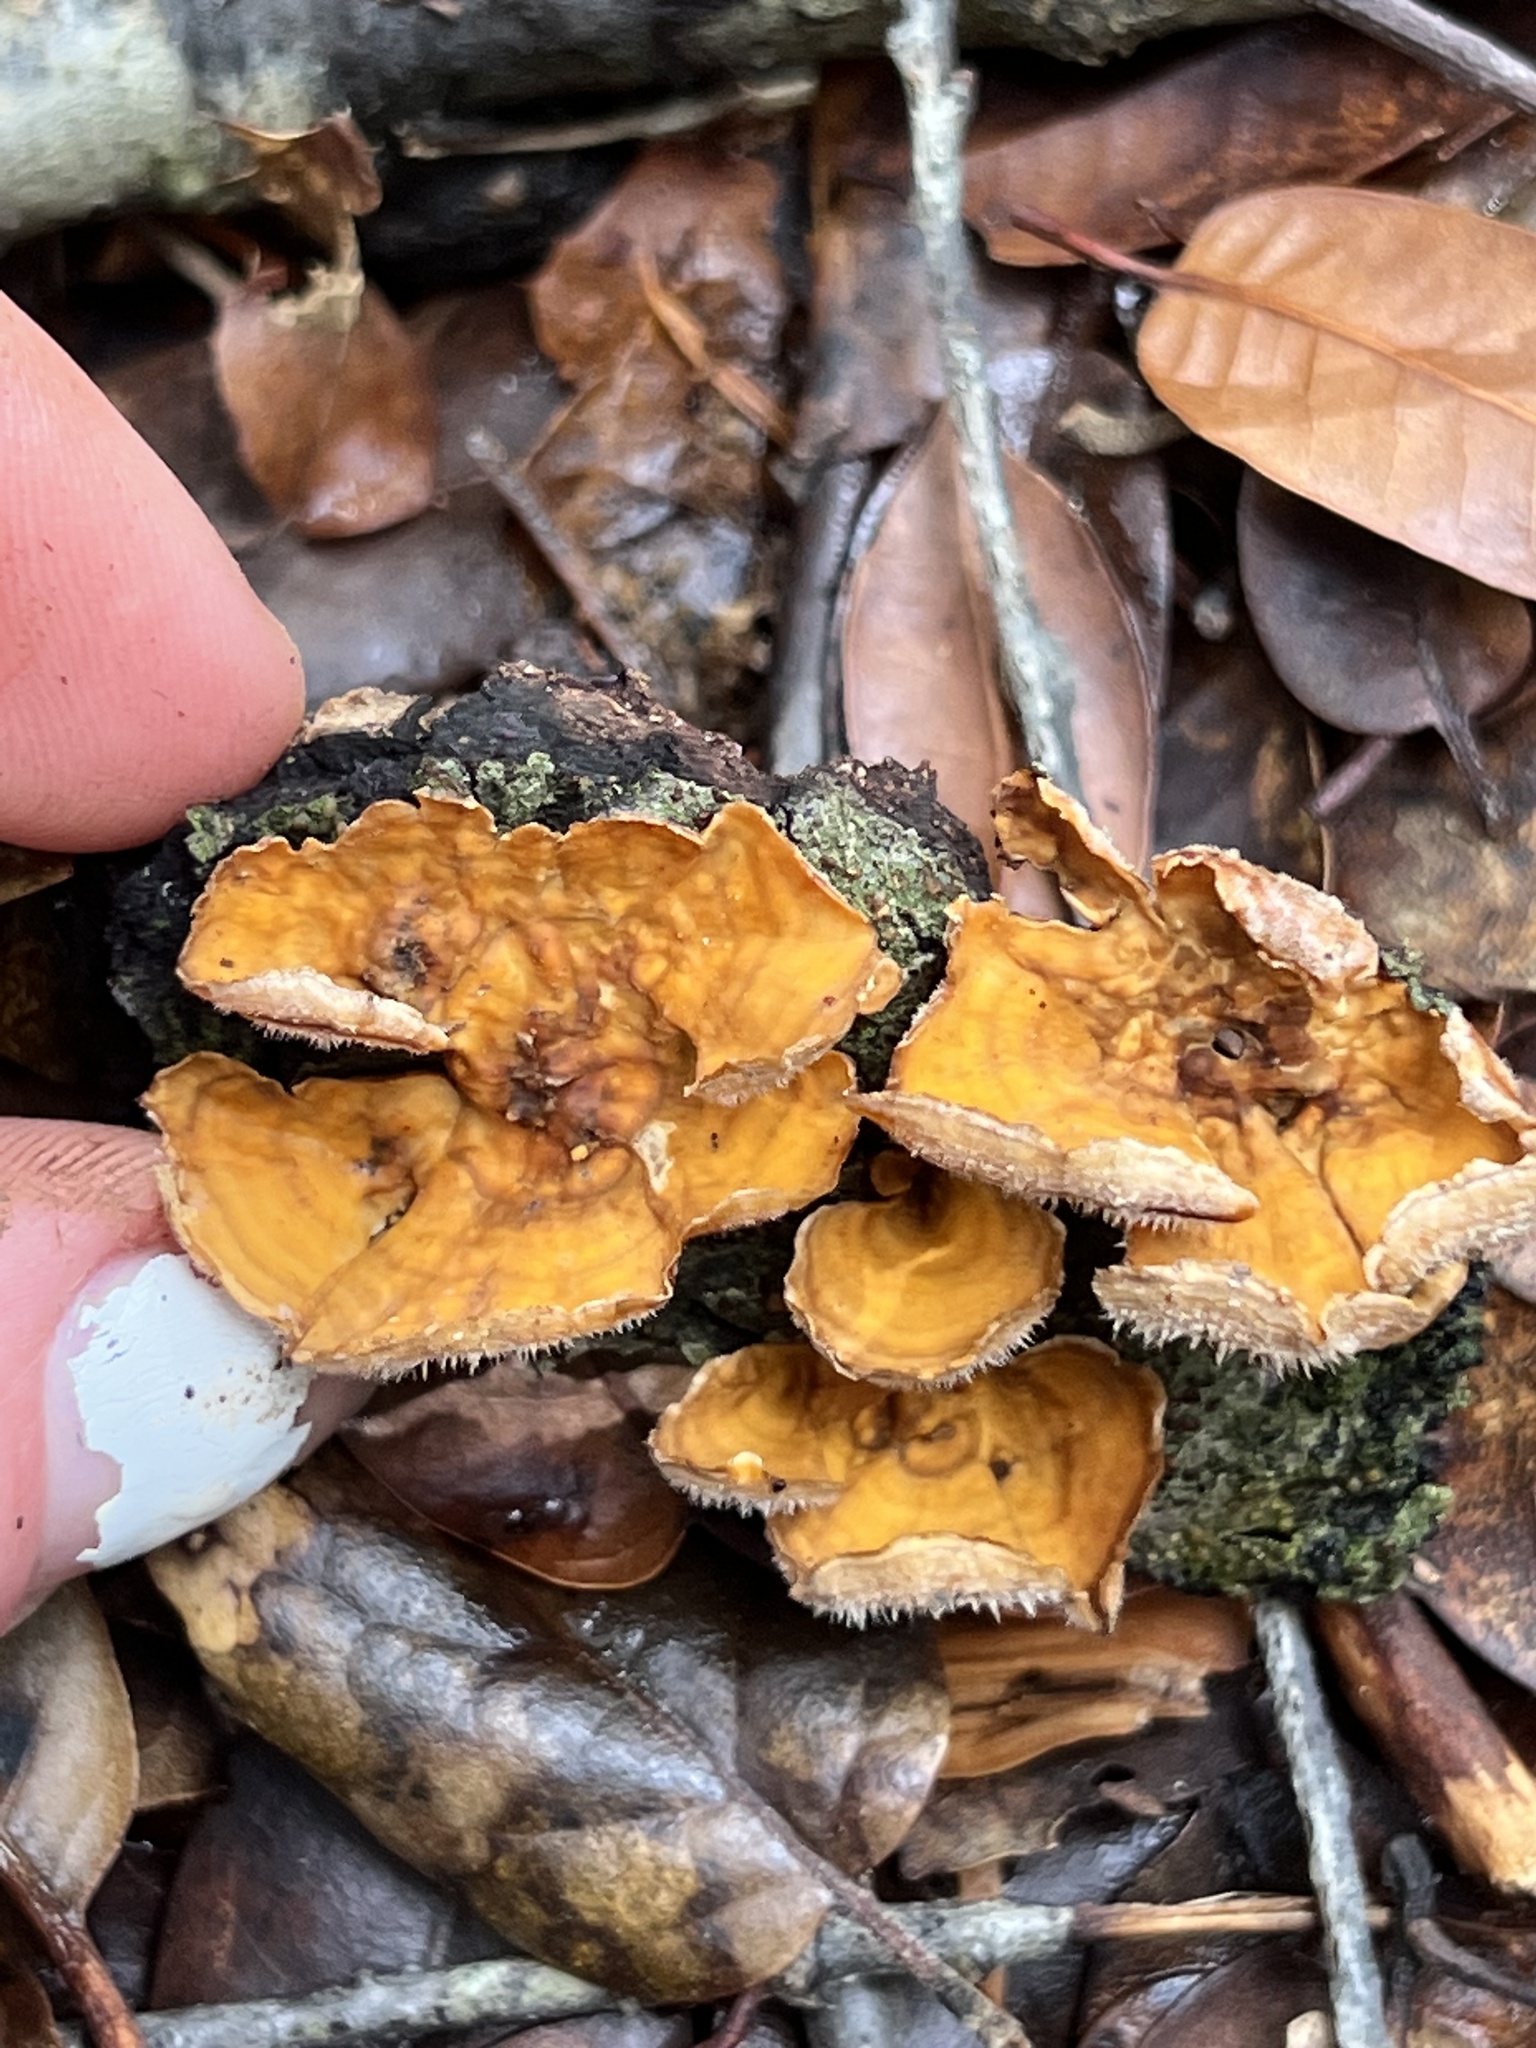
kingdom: Fungi
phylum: Basidiomycota
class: Agaricomycetes
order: Russulales
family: Stereaceae
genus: Stereum
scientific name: Stereum hirsutum
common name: Hairy curtain crust
